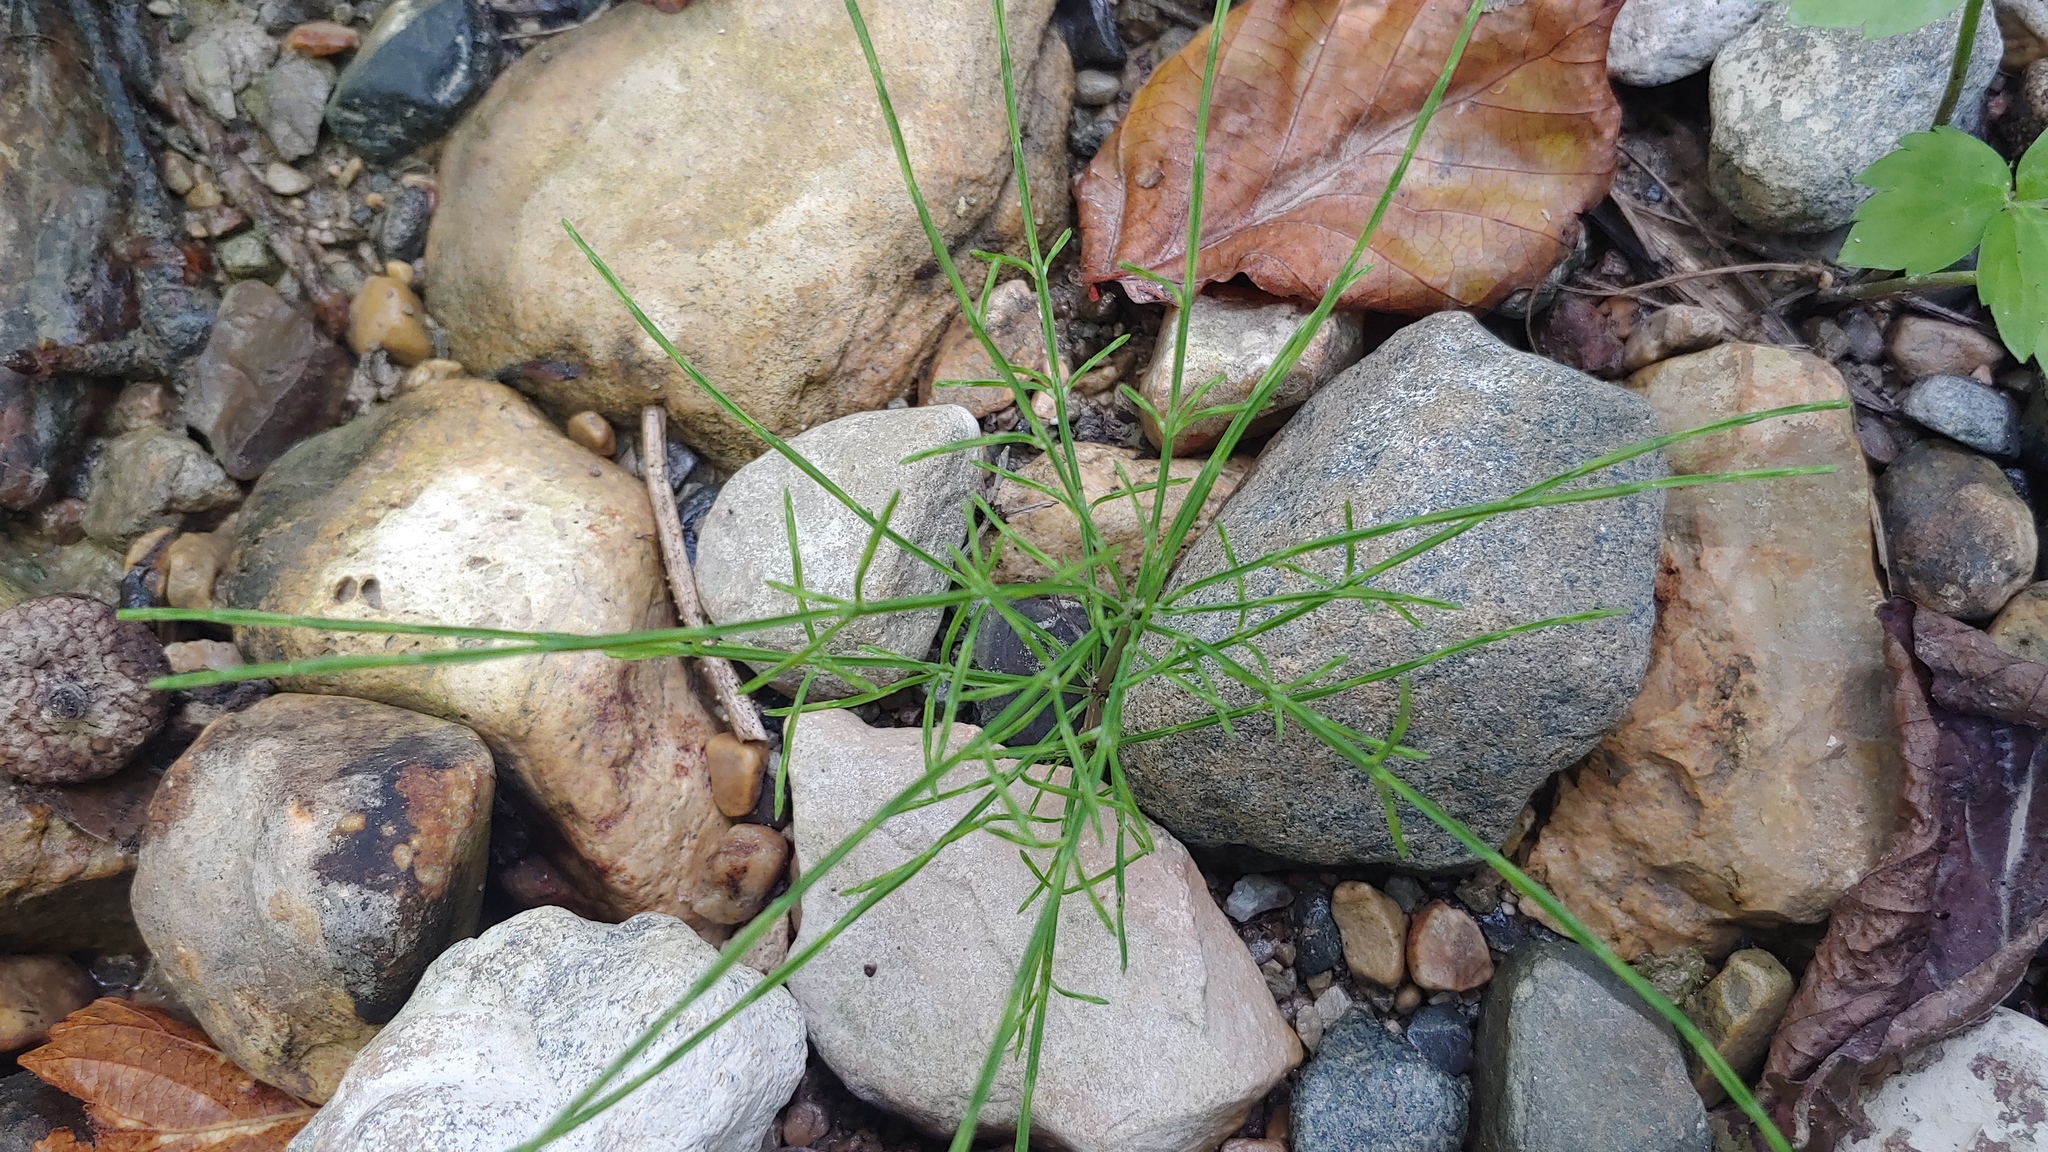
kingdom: Plantae
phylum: Tracheophyta
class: Polypodiopsida
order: Equisetales
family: Equisetaceae
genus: Equisetum
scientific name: Equisetum arvense
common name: Field horsetail
